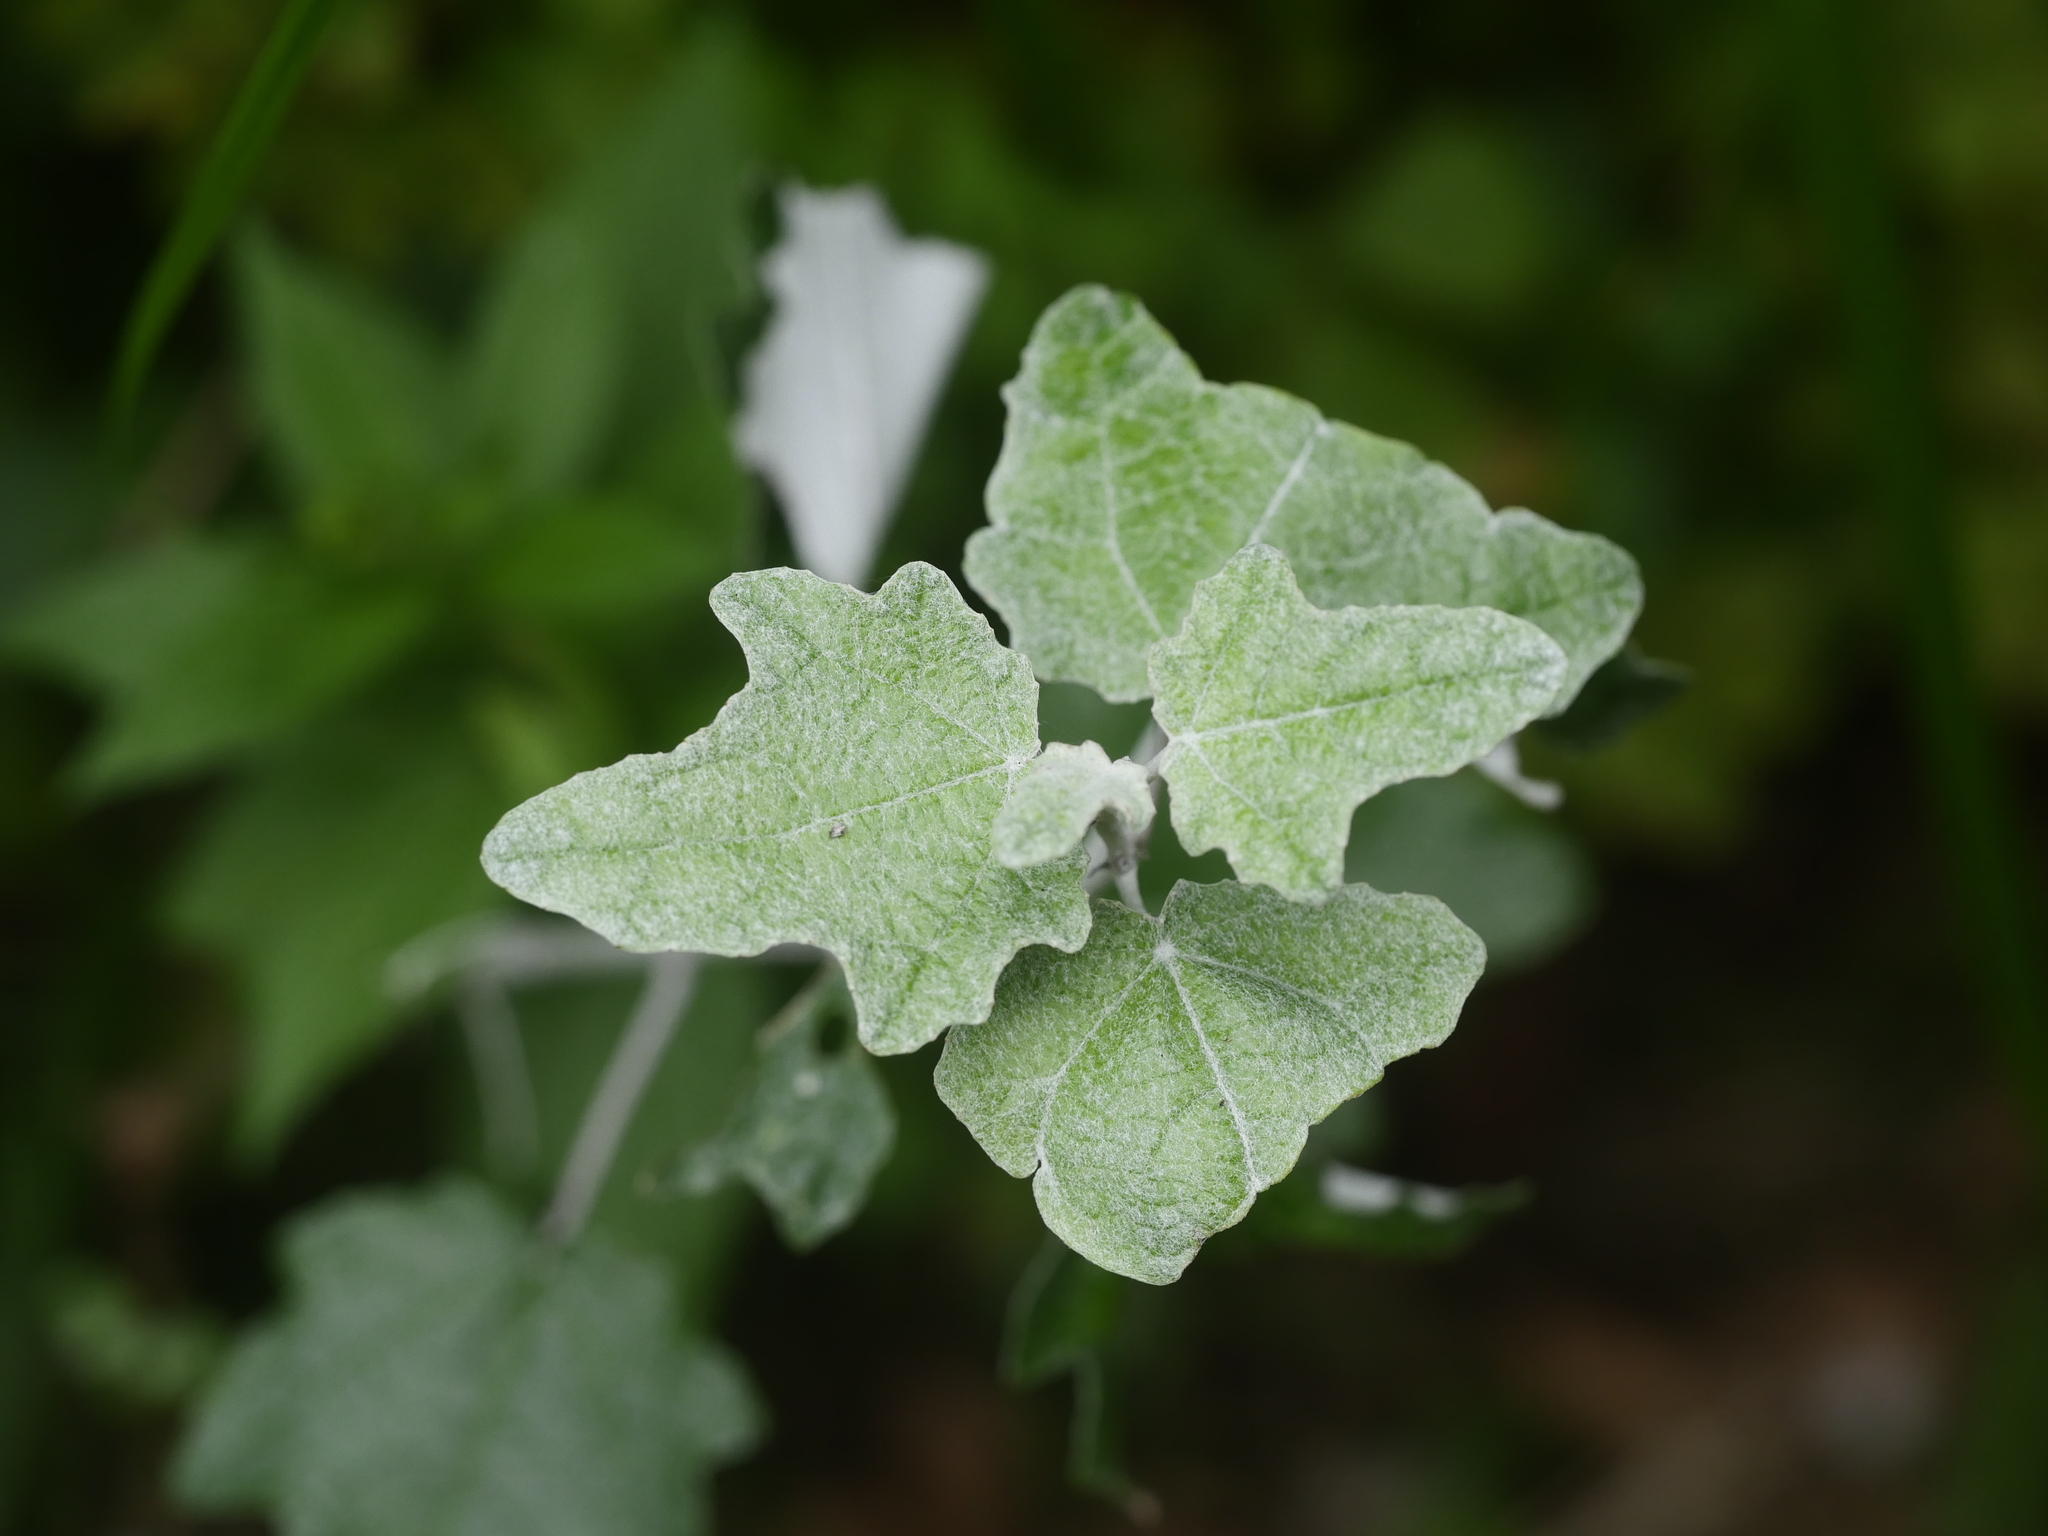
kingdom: Plantae
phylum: Tracheophyta
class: Magnoliopsida
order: Malpighiales
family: Salicaceae
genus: Populus
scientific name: Populus alba
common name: White poplar
